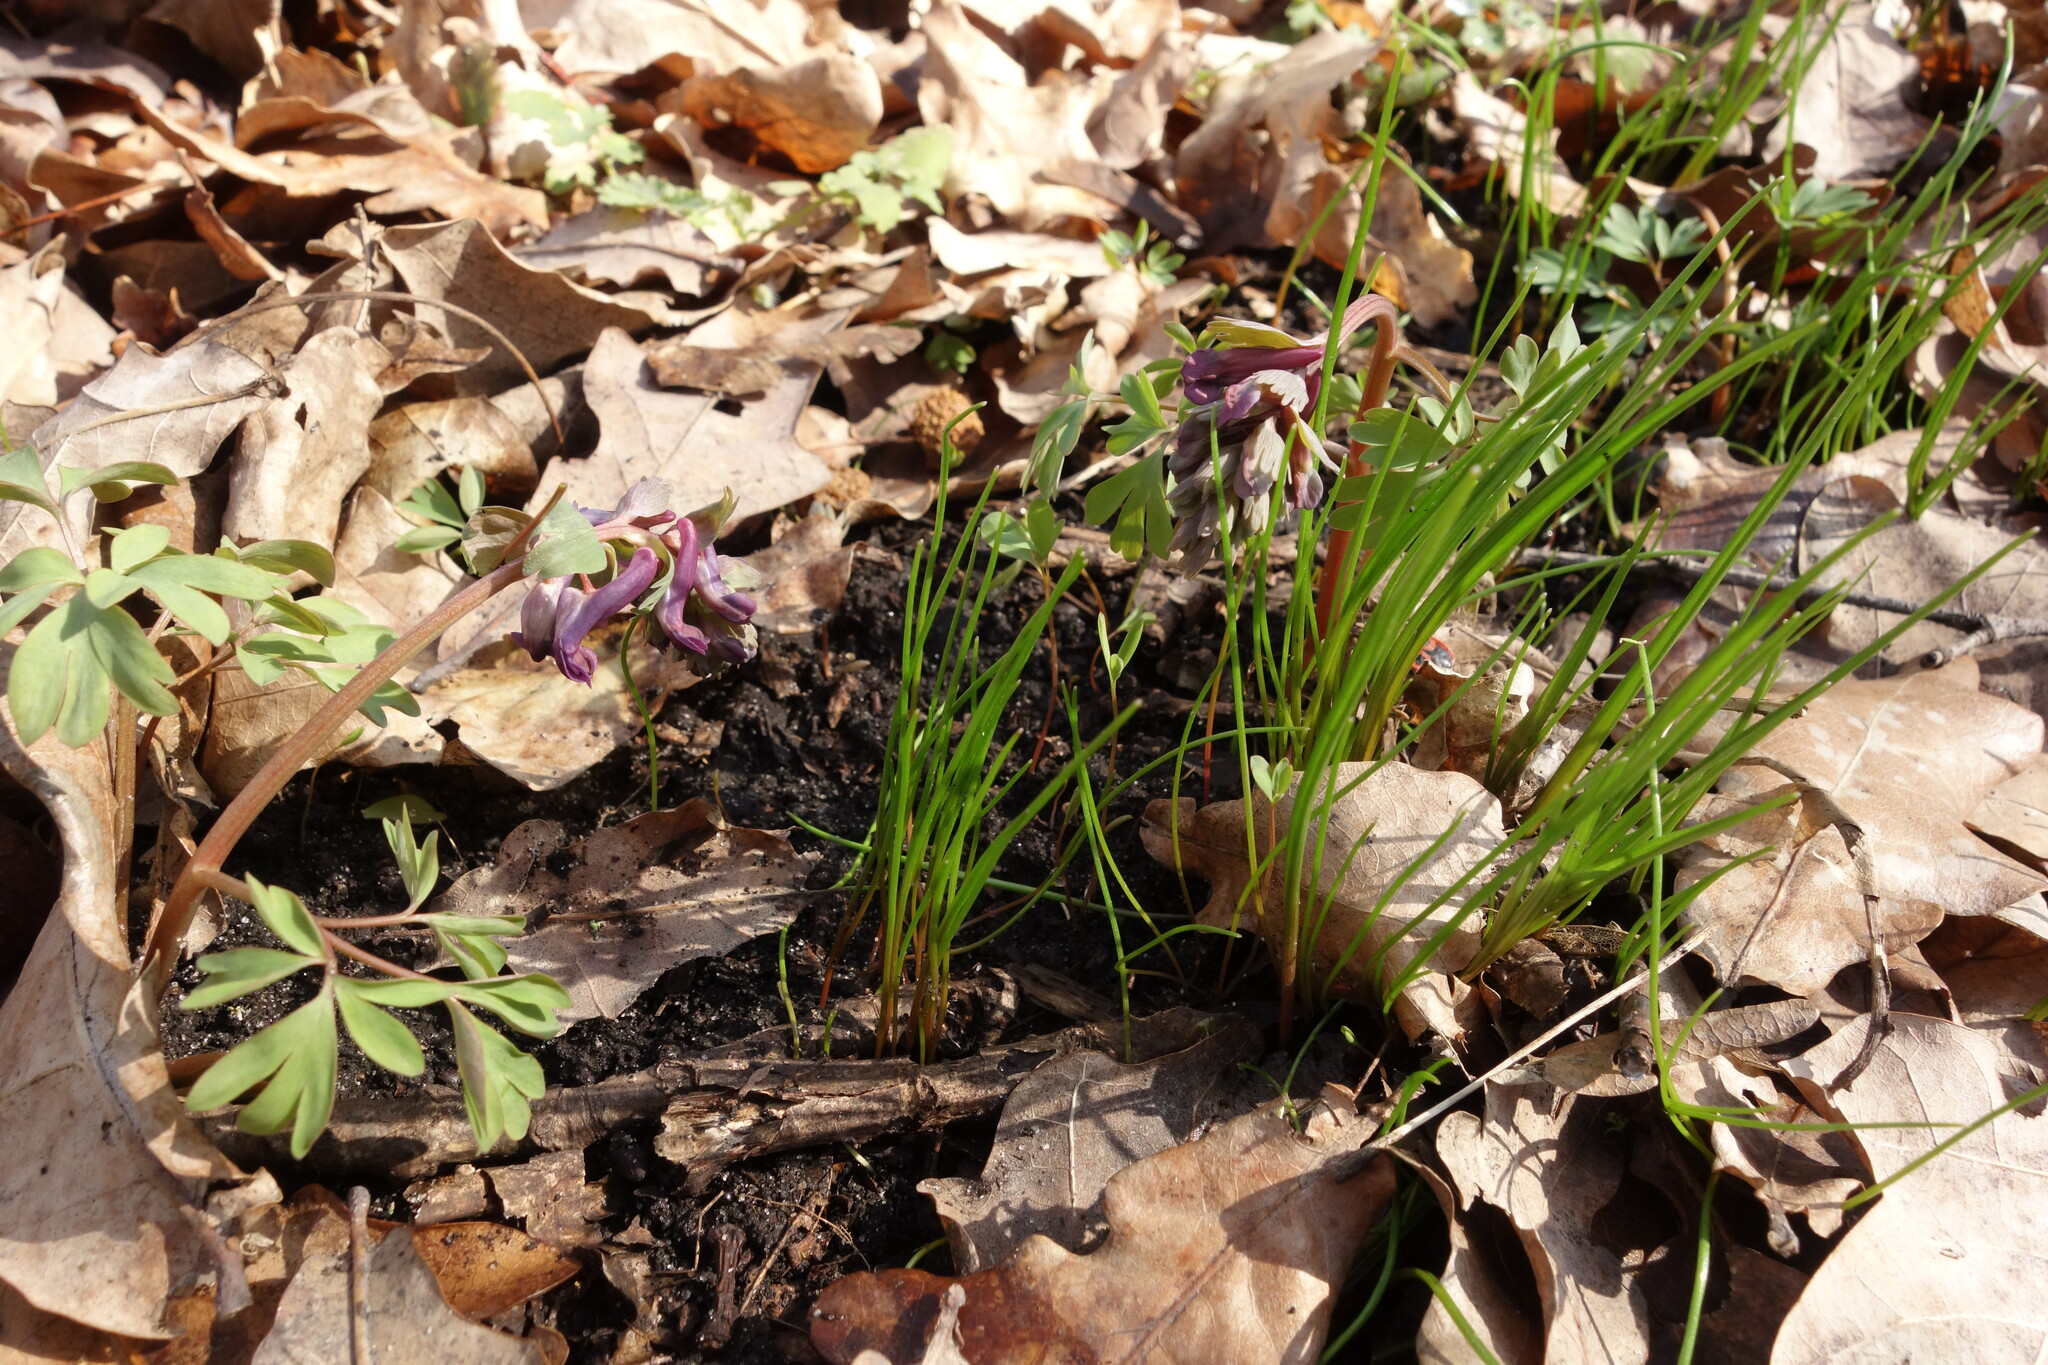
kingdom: Plantae
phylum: Tracheophyta
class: Liliopsida
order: Liliales
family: Liliaceae
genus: Gagea
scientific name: Gagea minima
